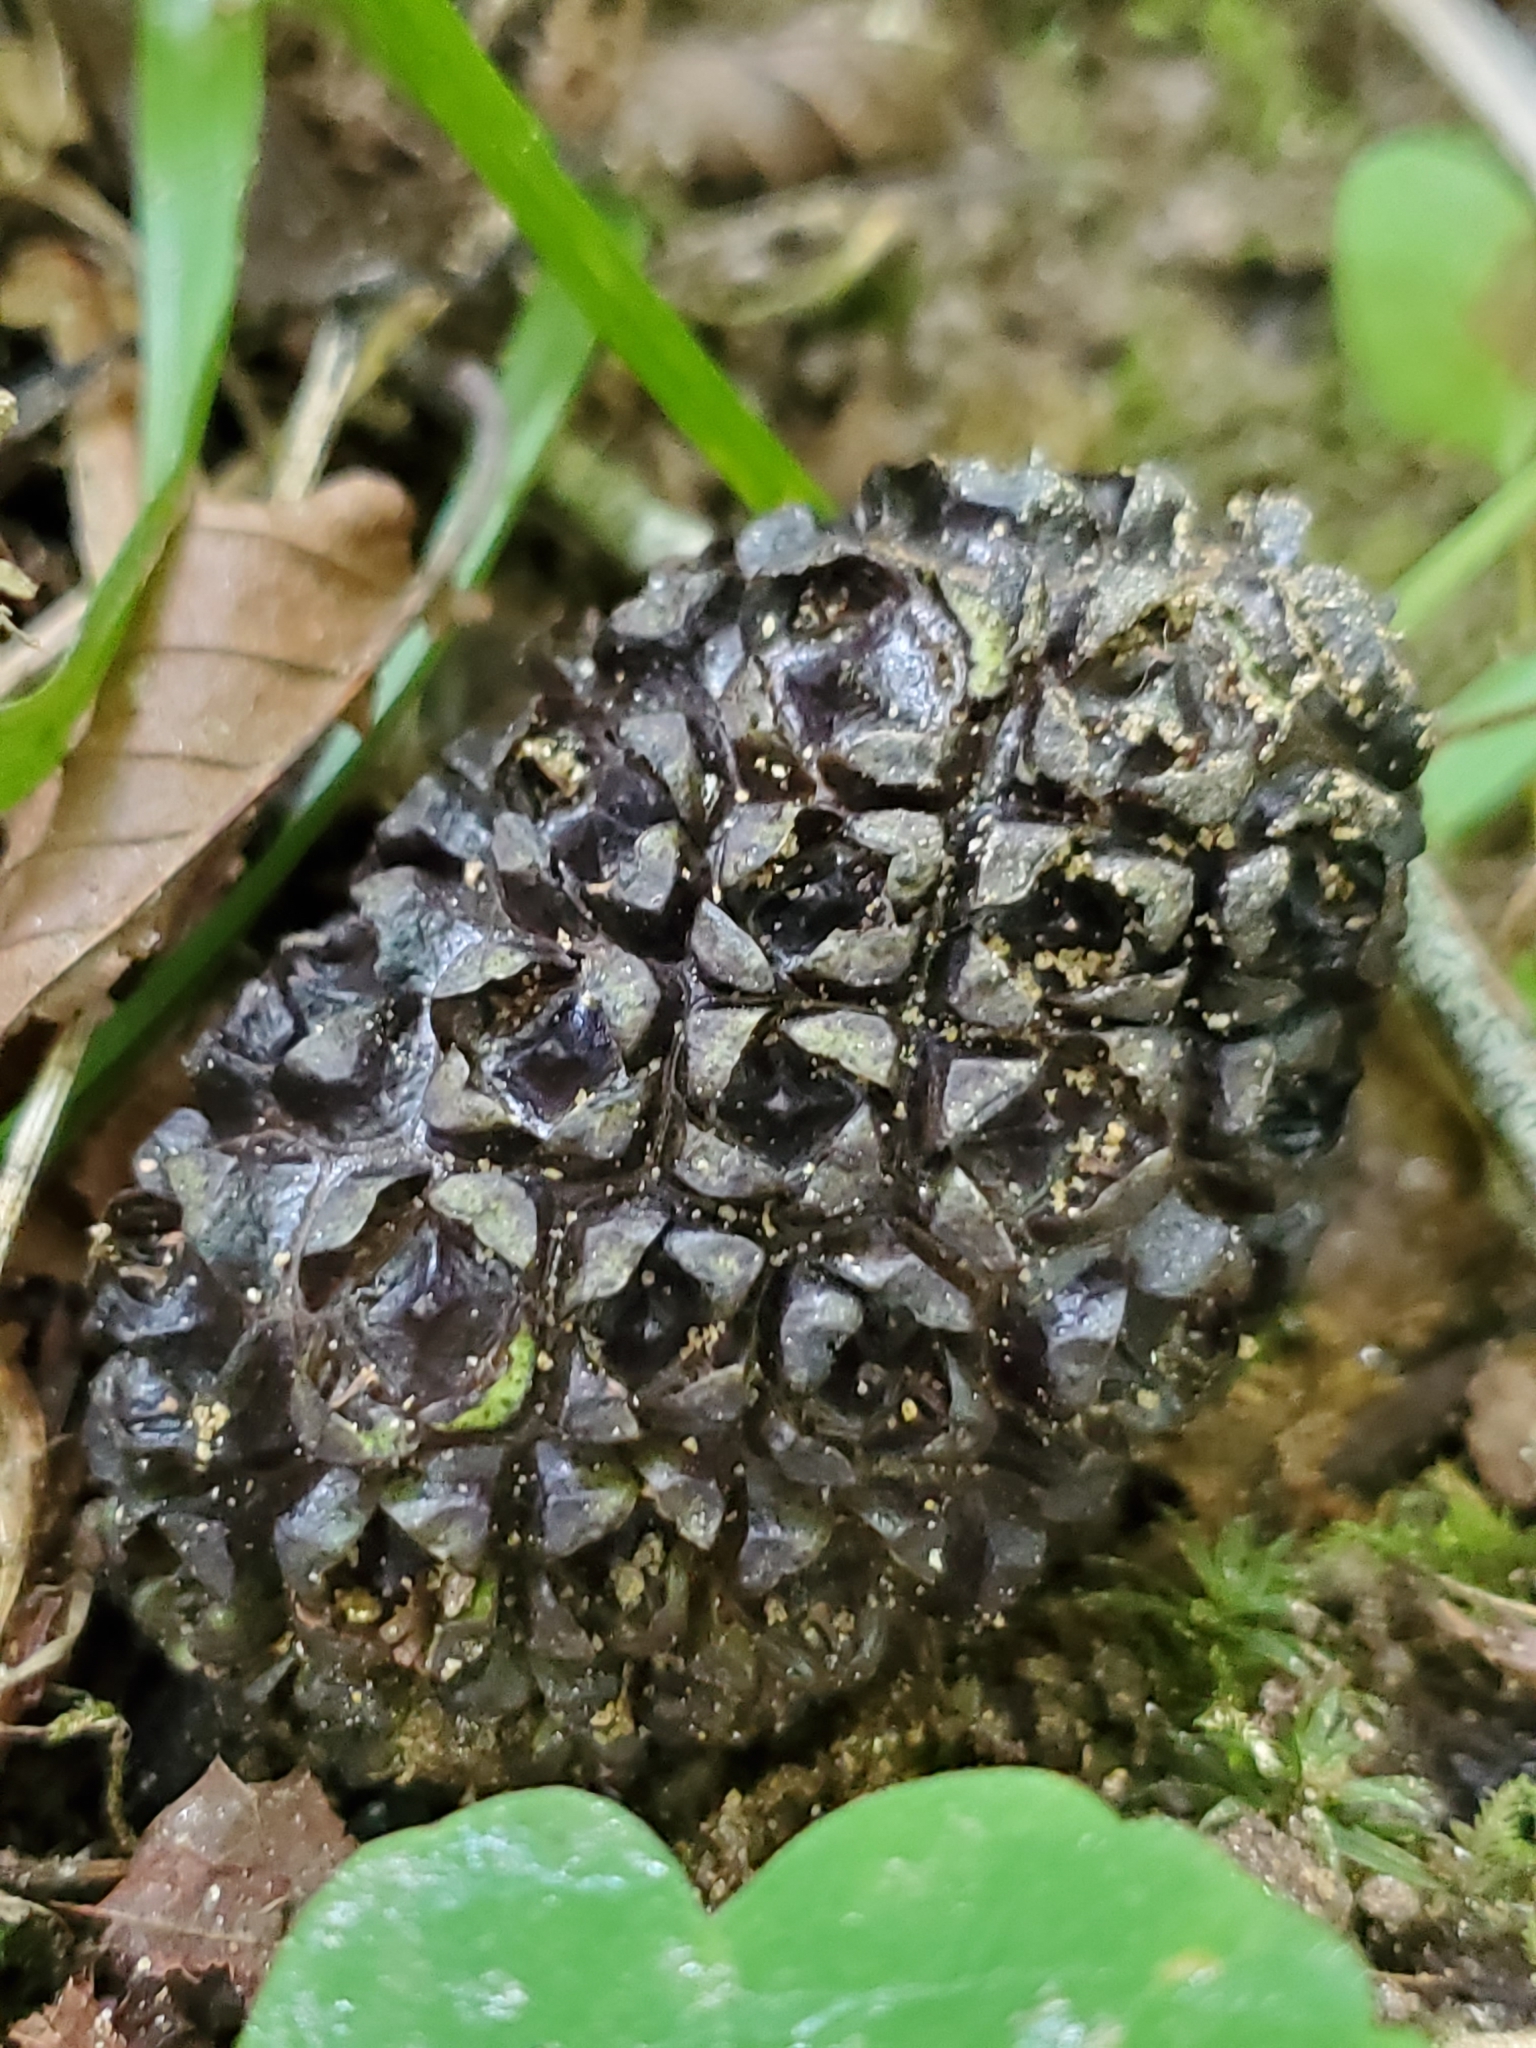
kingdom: Plantae
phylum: Tracheophyta
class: Liliopsida
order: Alismatales
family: Araceae
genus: Symplocarpus
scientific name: Symplocarpus foetidus
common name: Eastern skunk cabbage
